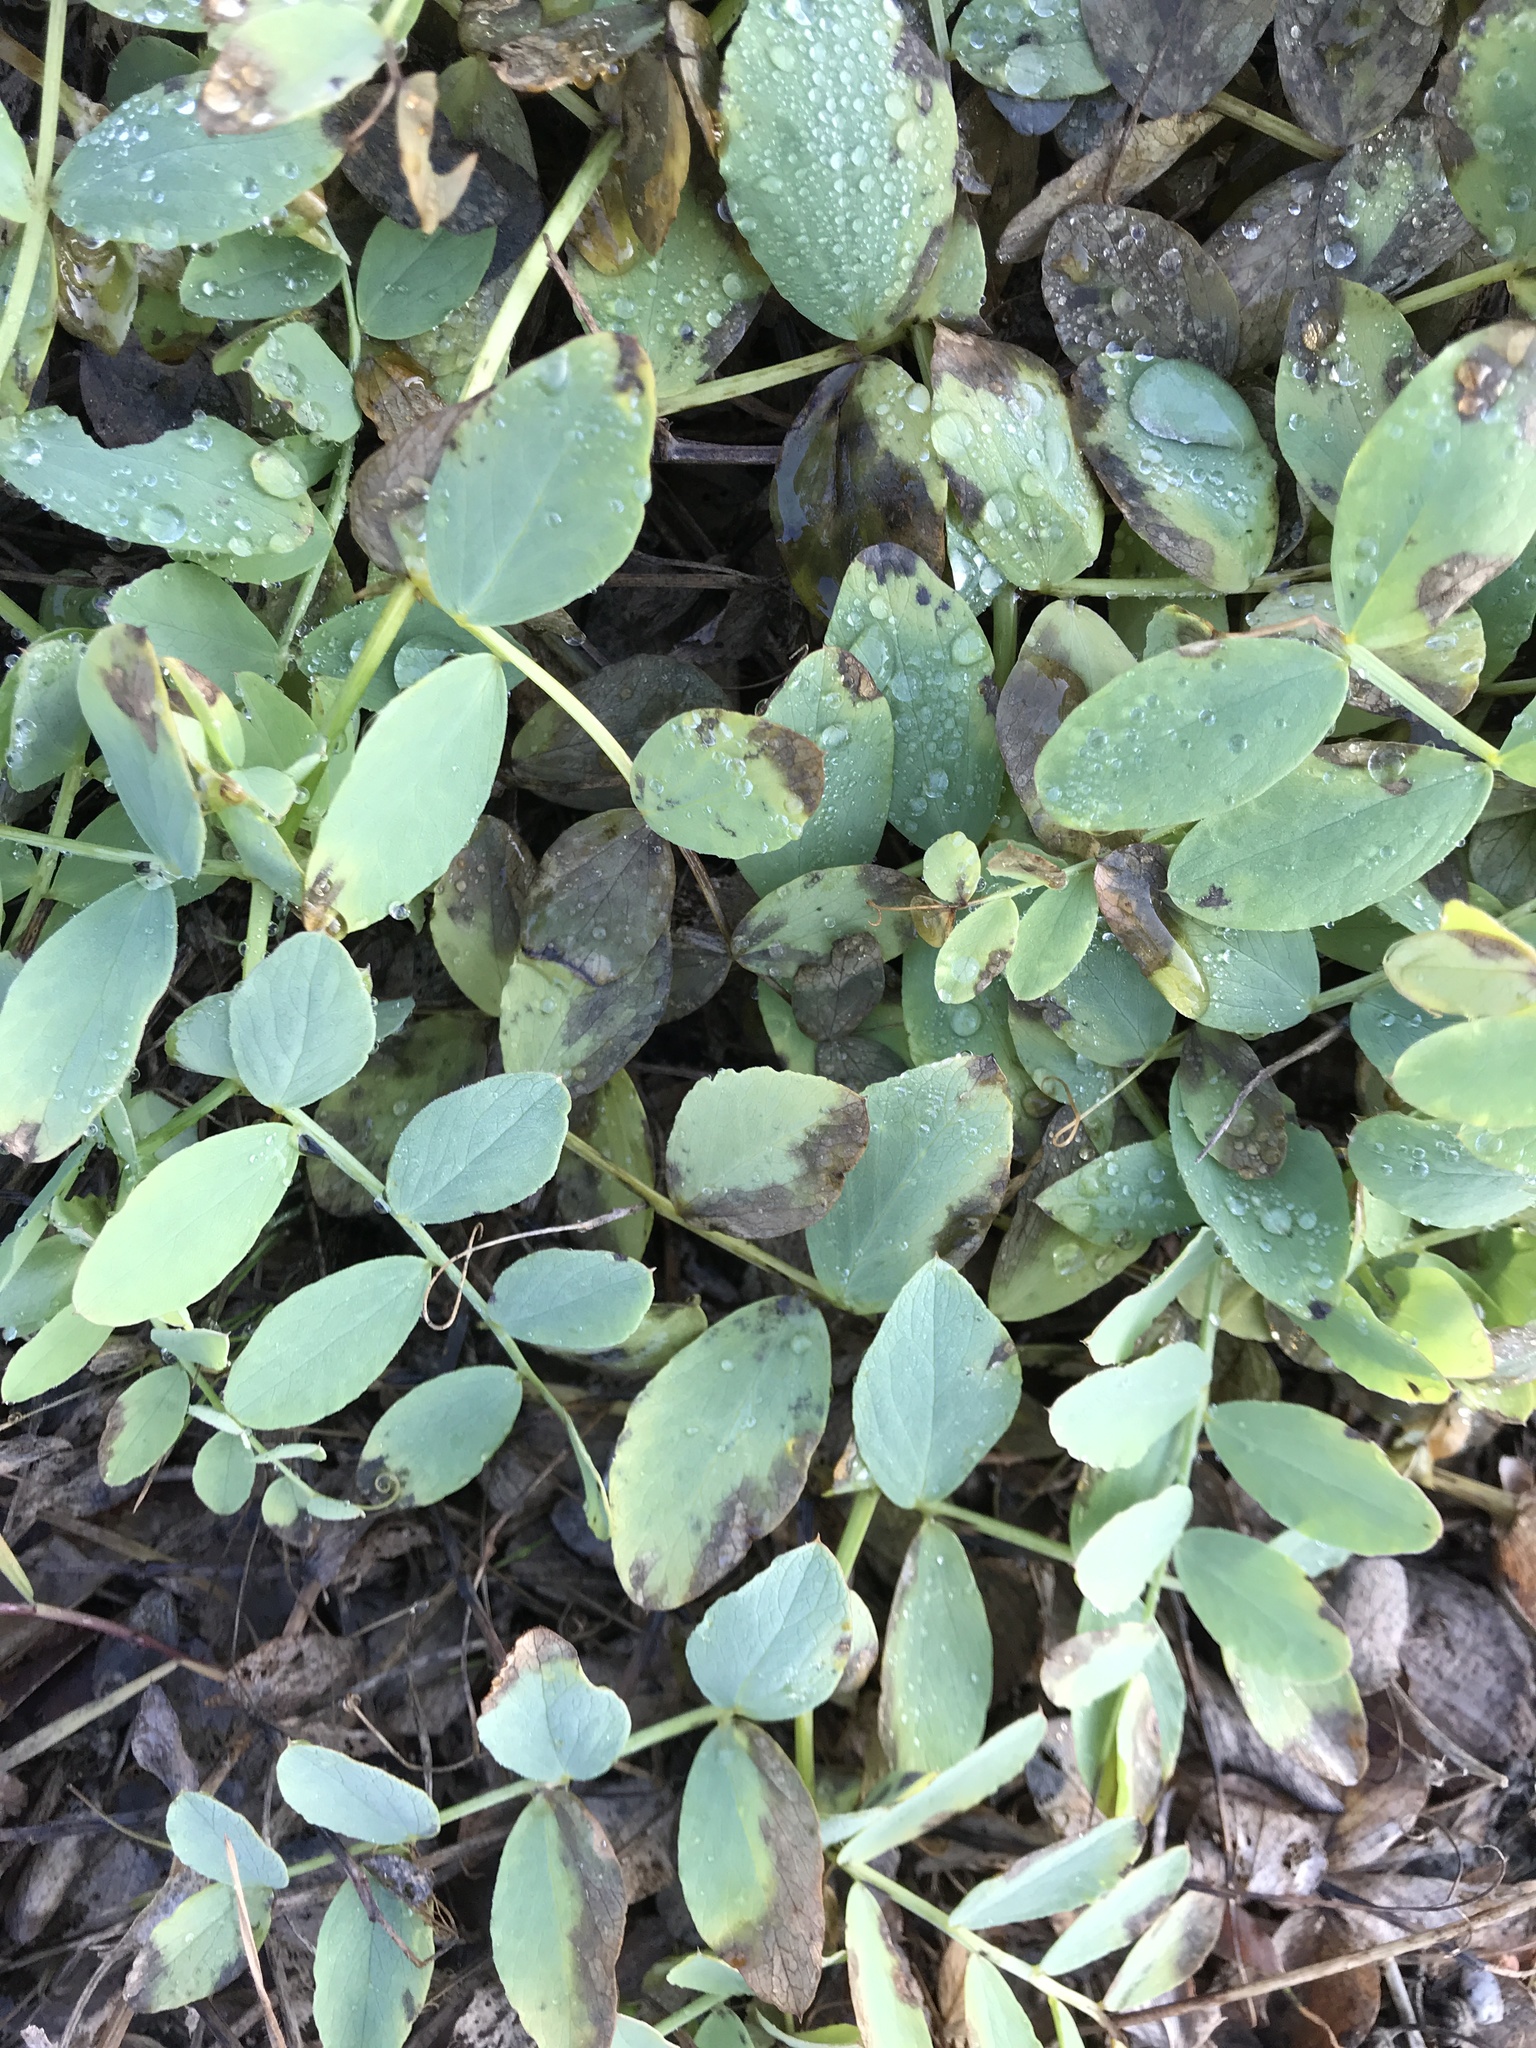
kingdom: Plantae
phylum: Tracheophyta
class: Magnoliopsida
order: Fabales
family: Fabaceae
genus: Lathyrus
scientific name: Lathyrus japonicus
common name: Sea pea
